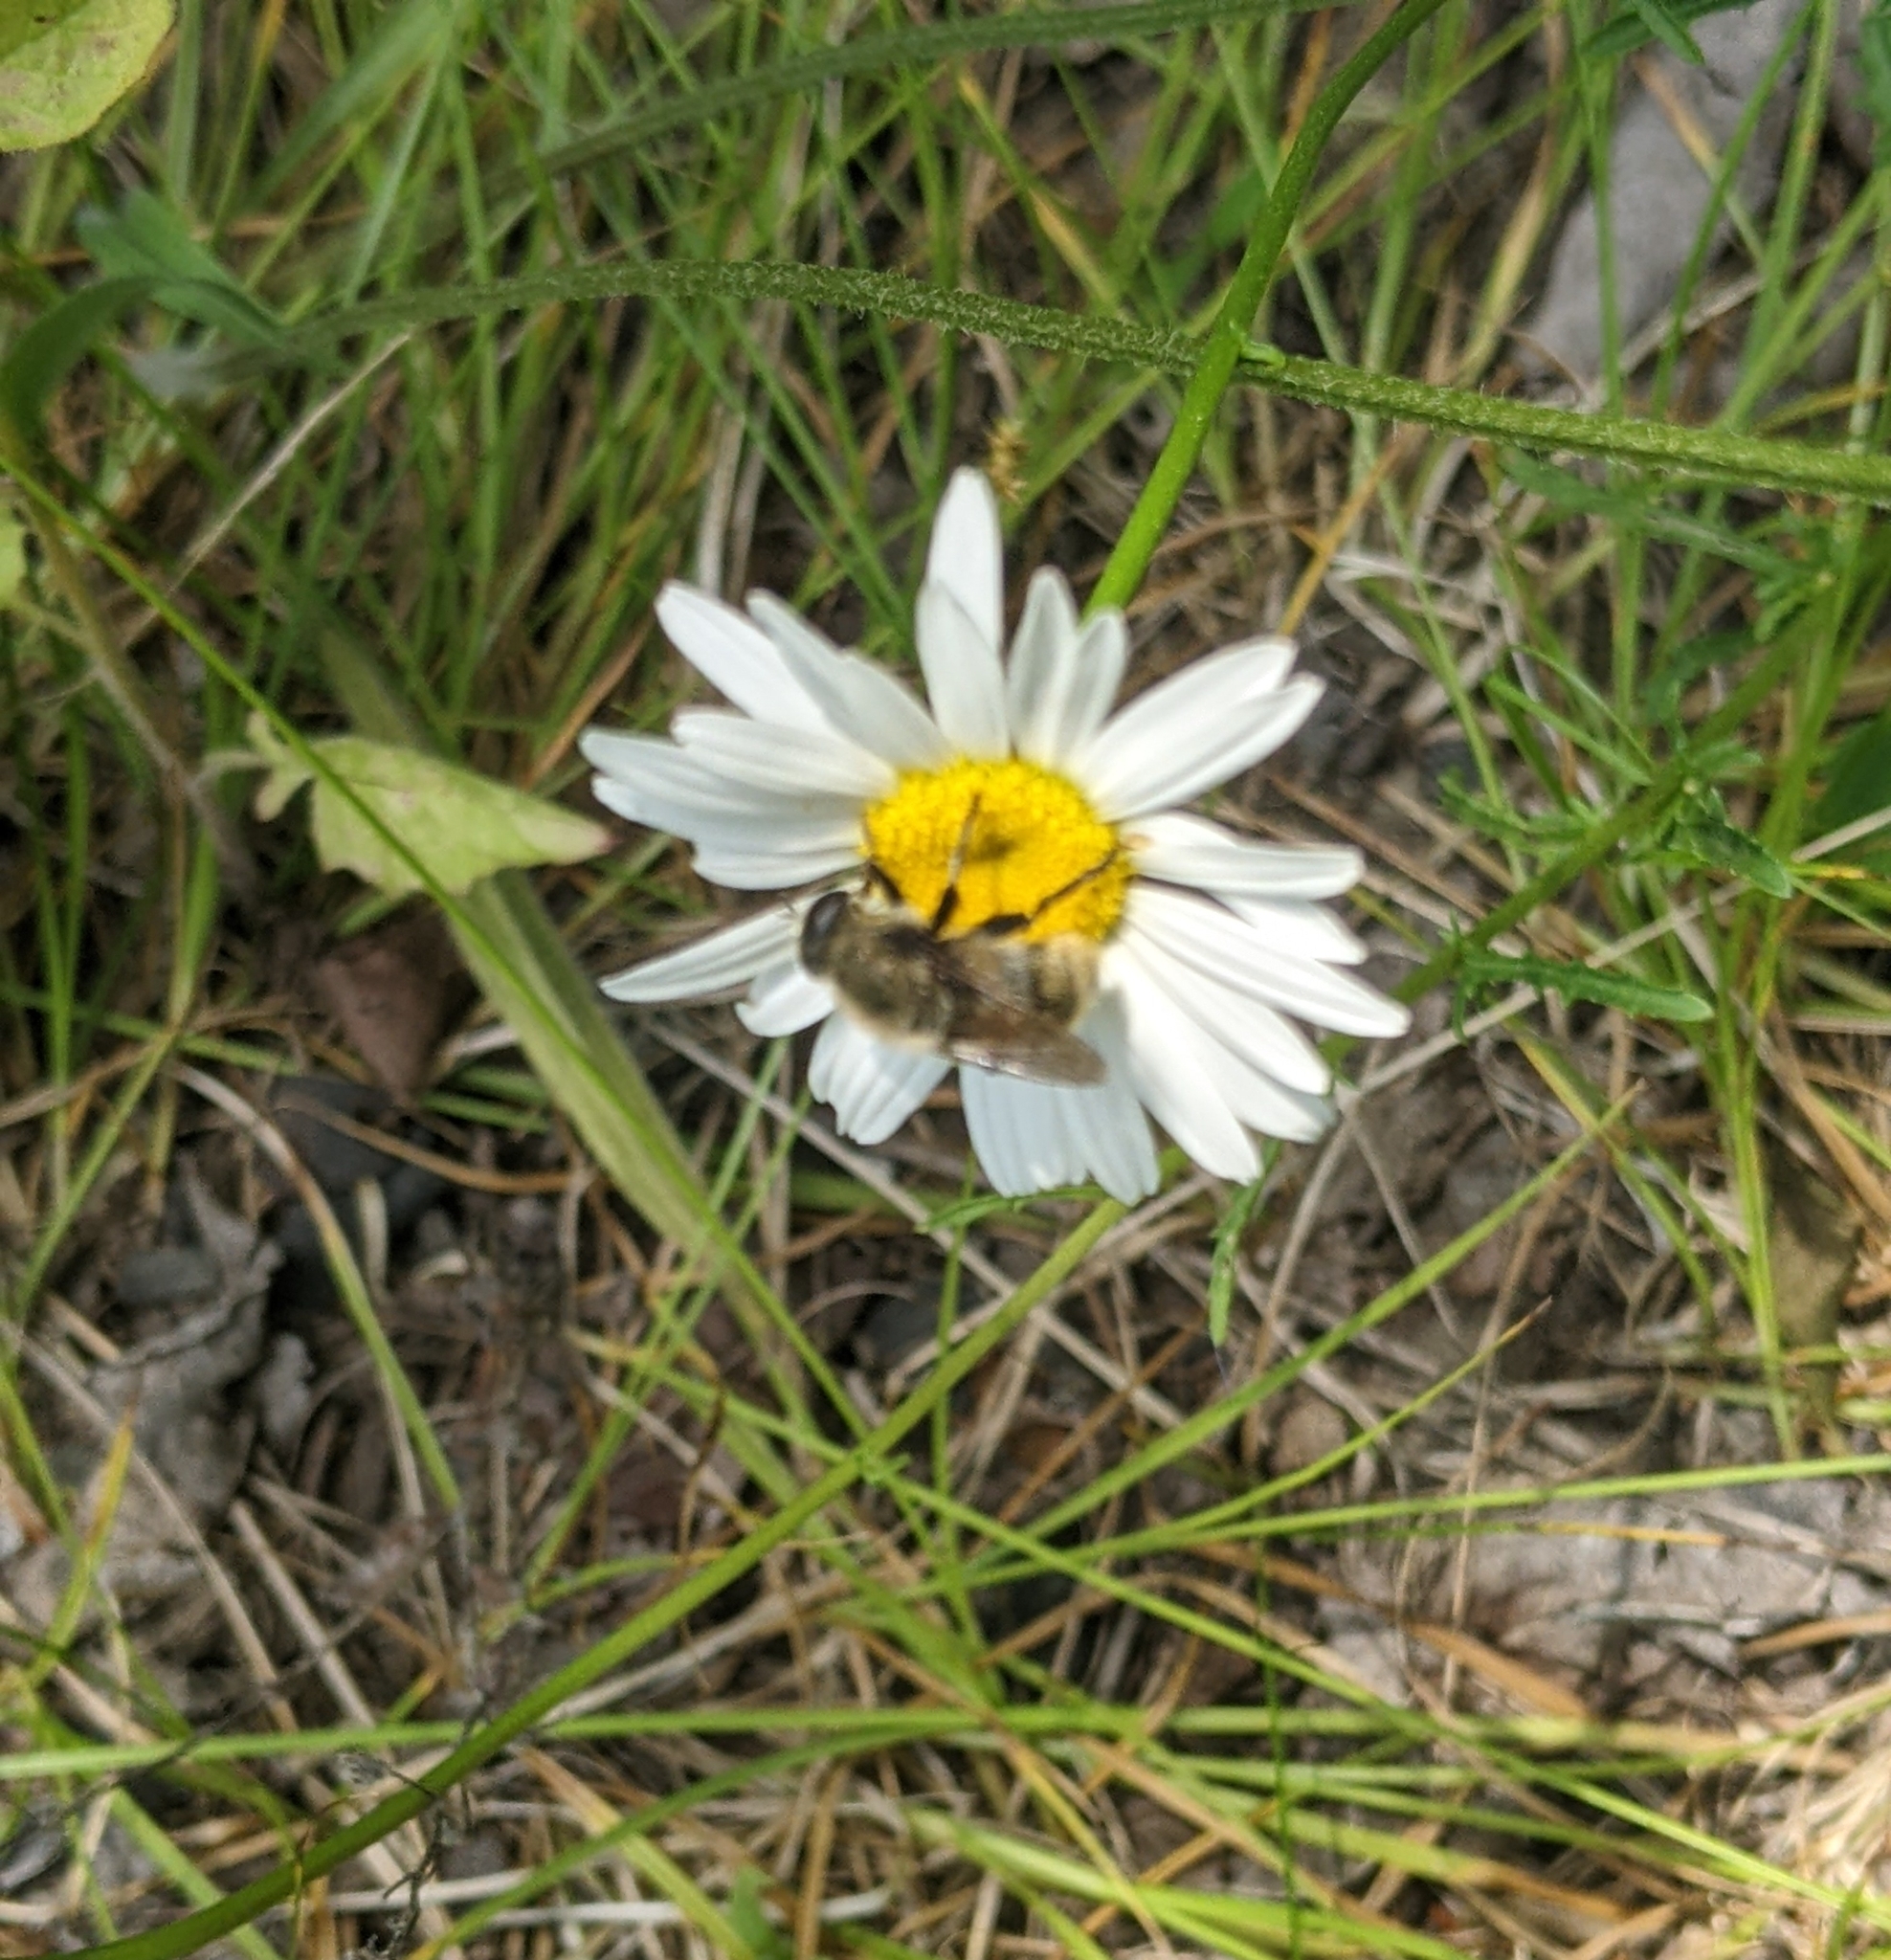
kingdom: Animalia
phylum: Arthropoda
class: Insecta
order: Diptera
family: Syrphidae
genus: Merodon
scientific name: Merodon equestris
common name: Greater bulb-fly
